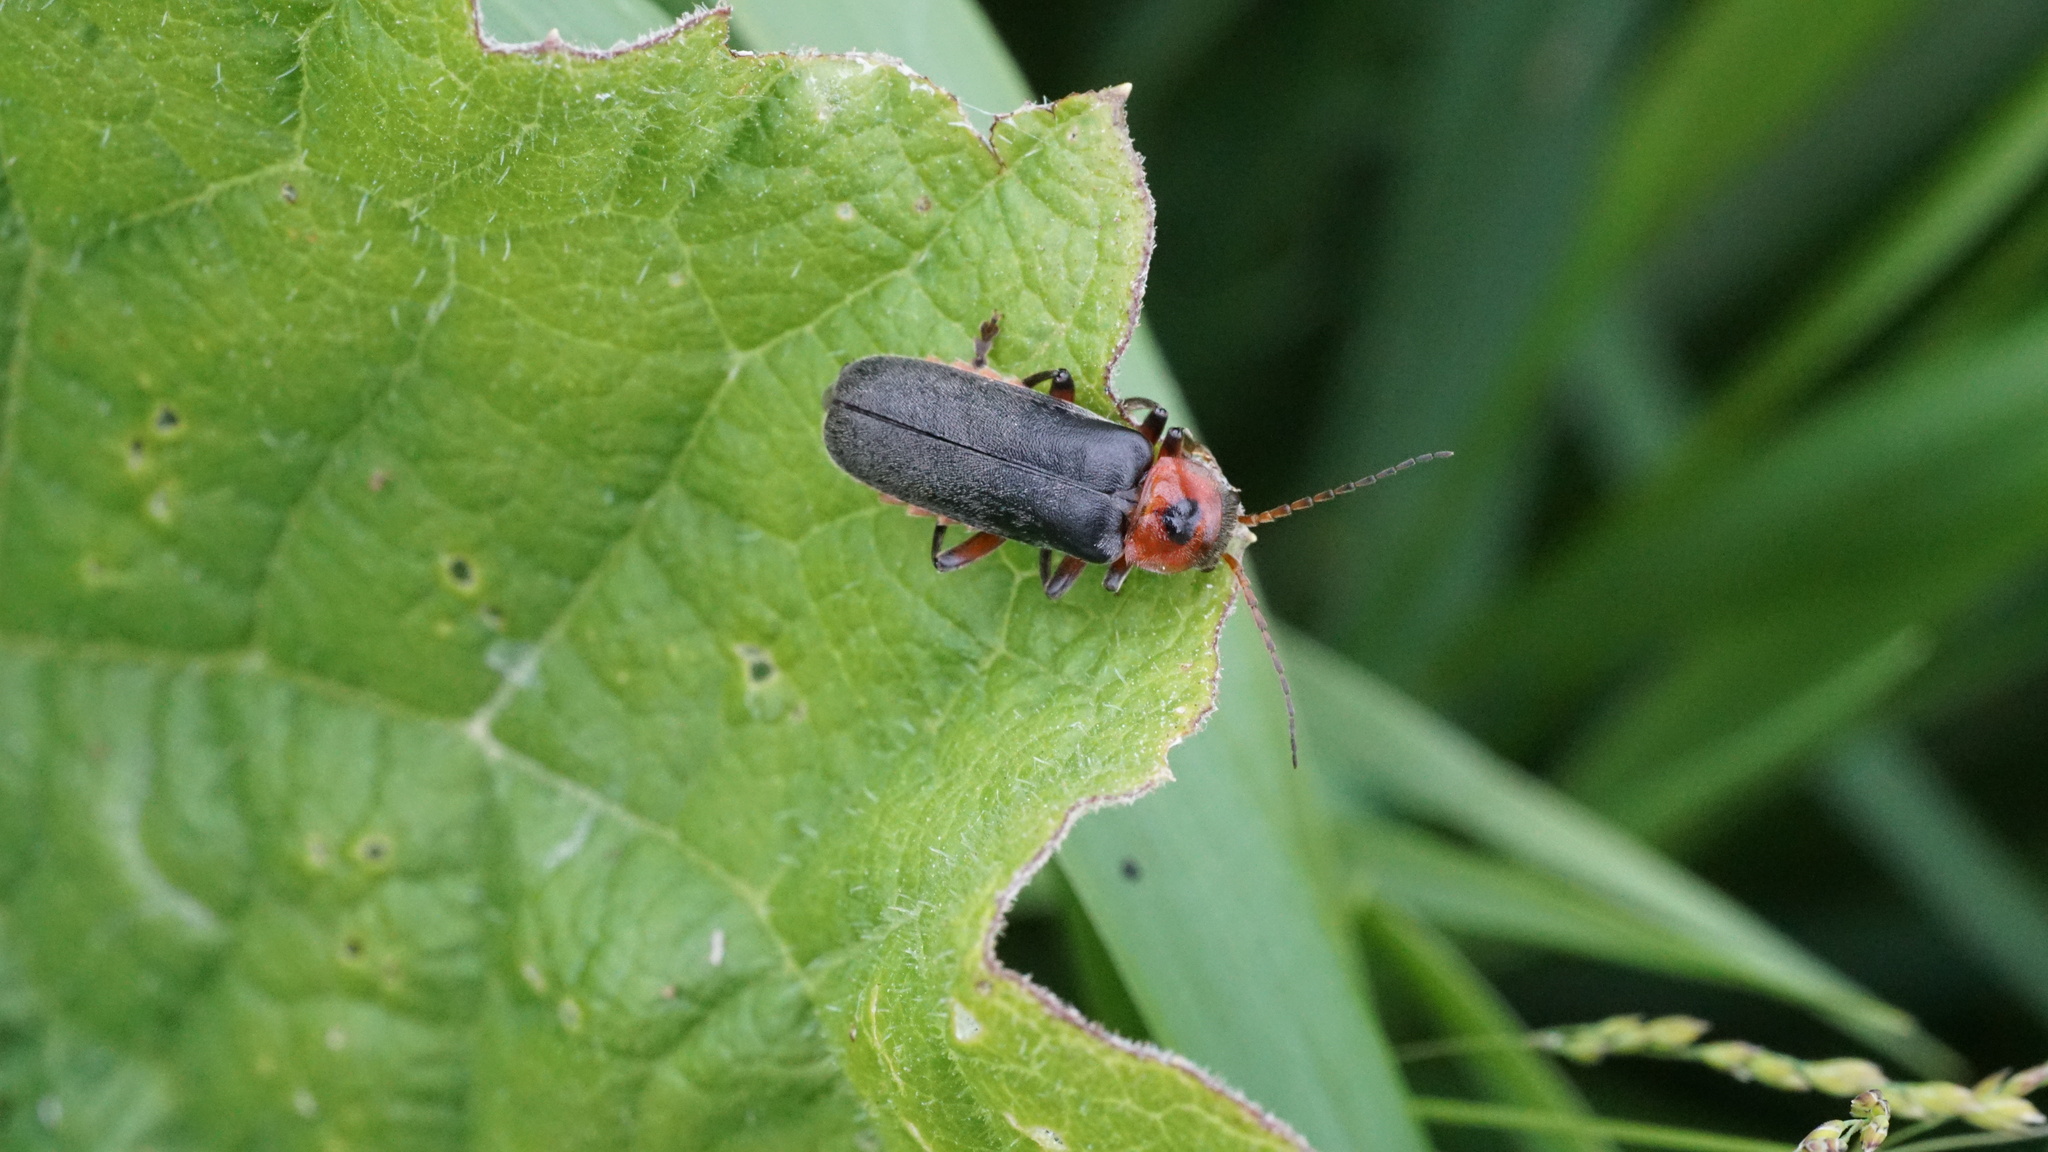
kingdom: Animalia
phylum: Arthropoda
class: Insecta
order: Coleoptera
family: Cantharidae
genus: Cantharis
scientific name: Cantharis rustica
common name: Soldier beetle
